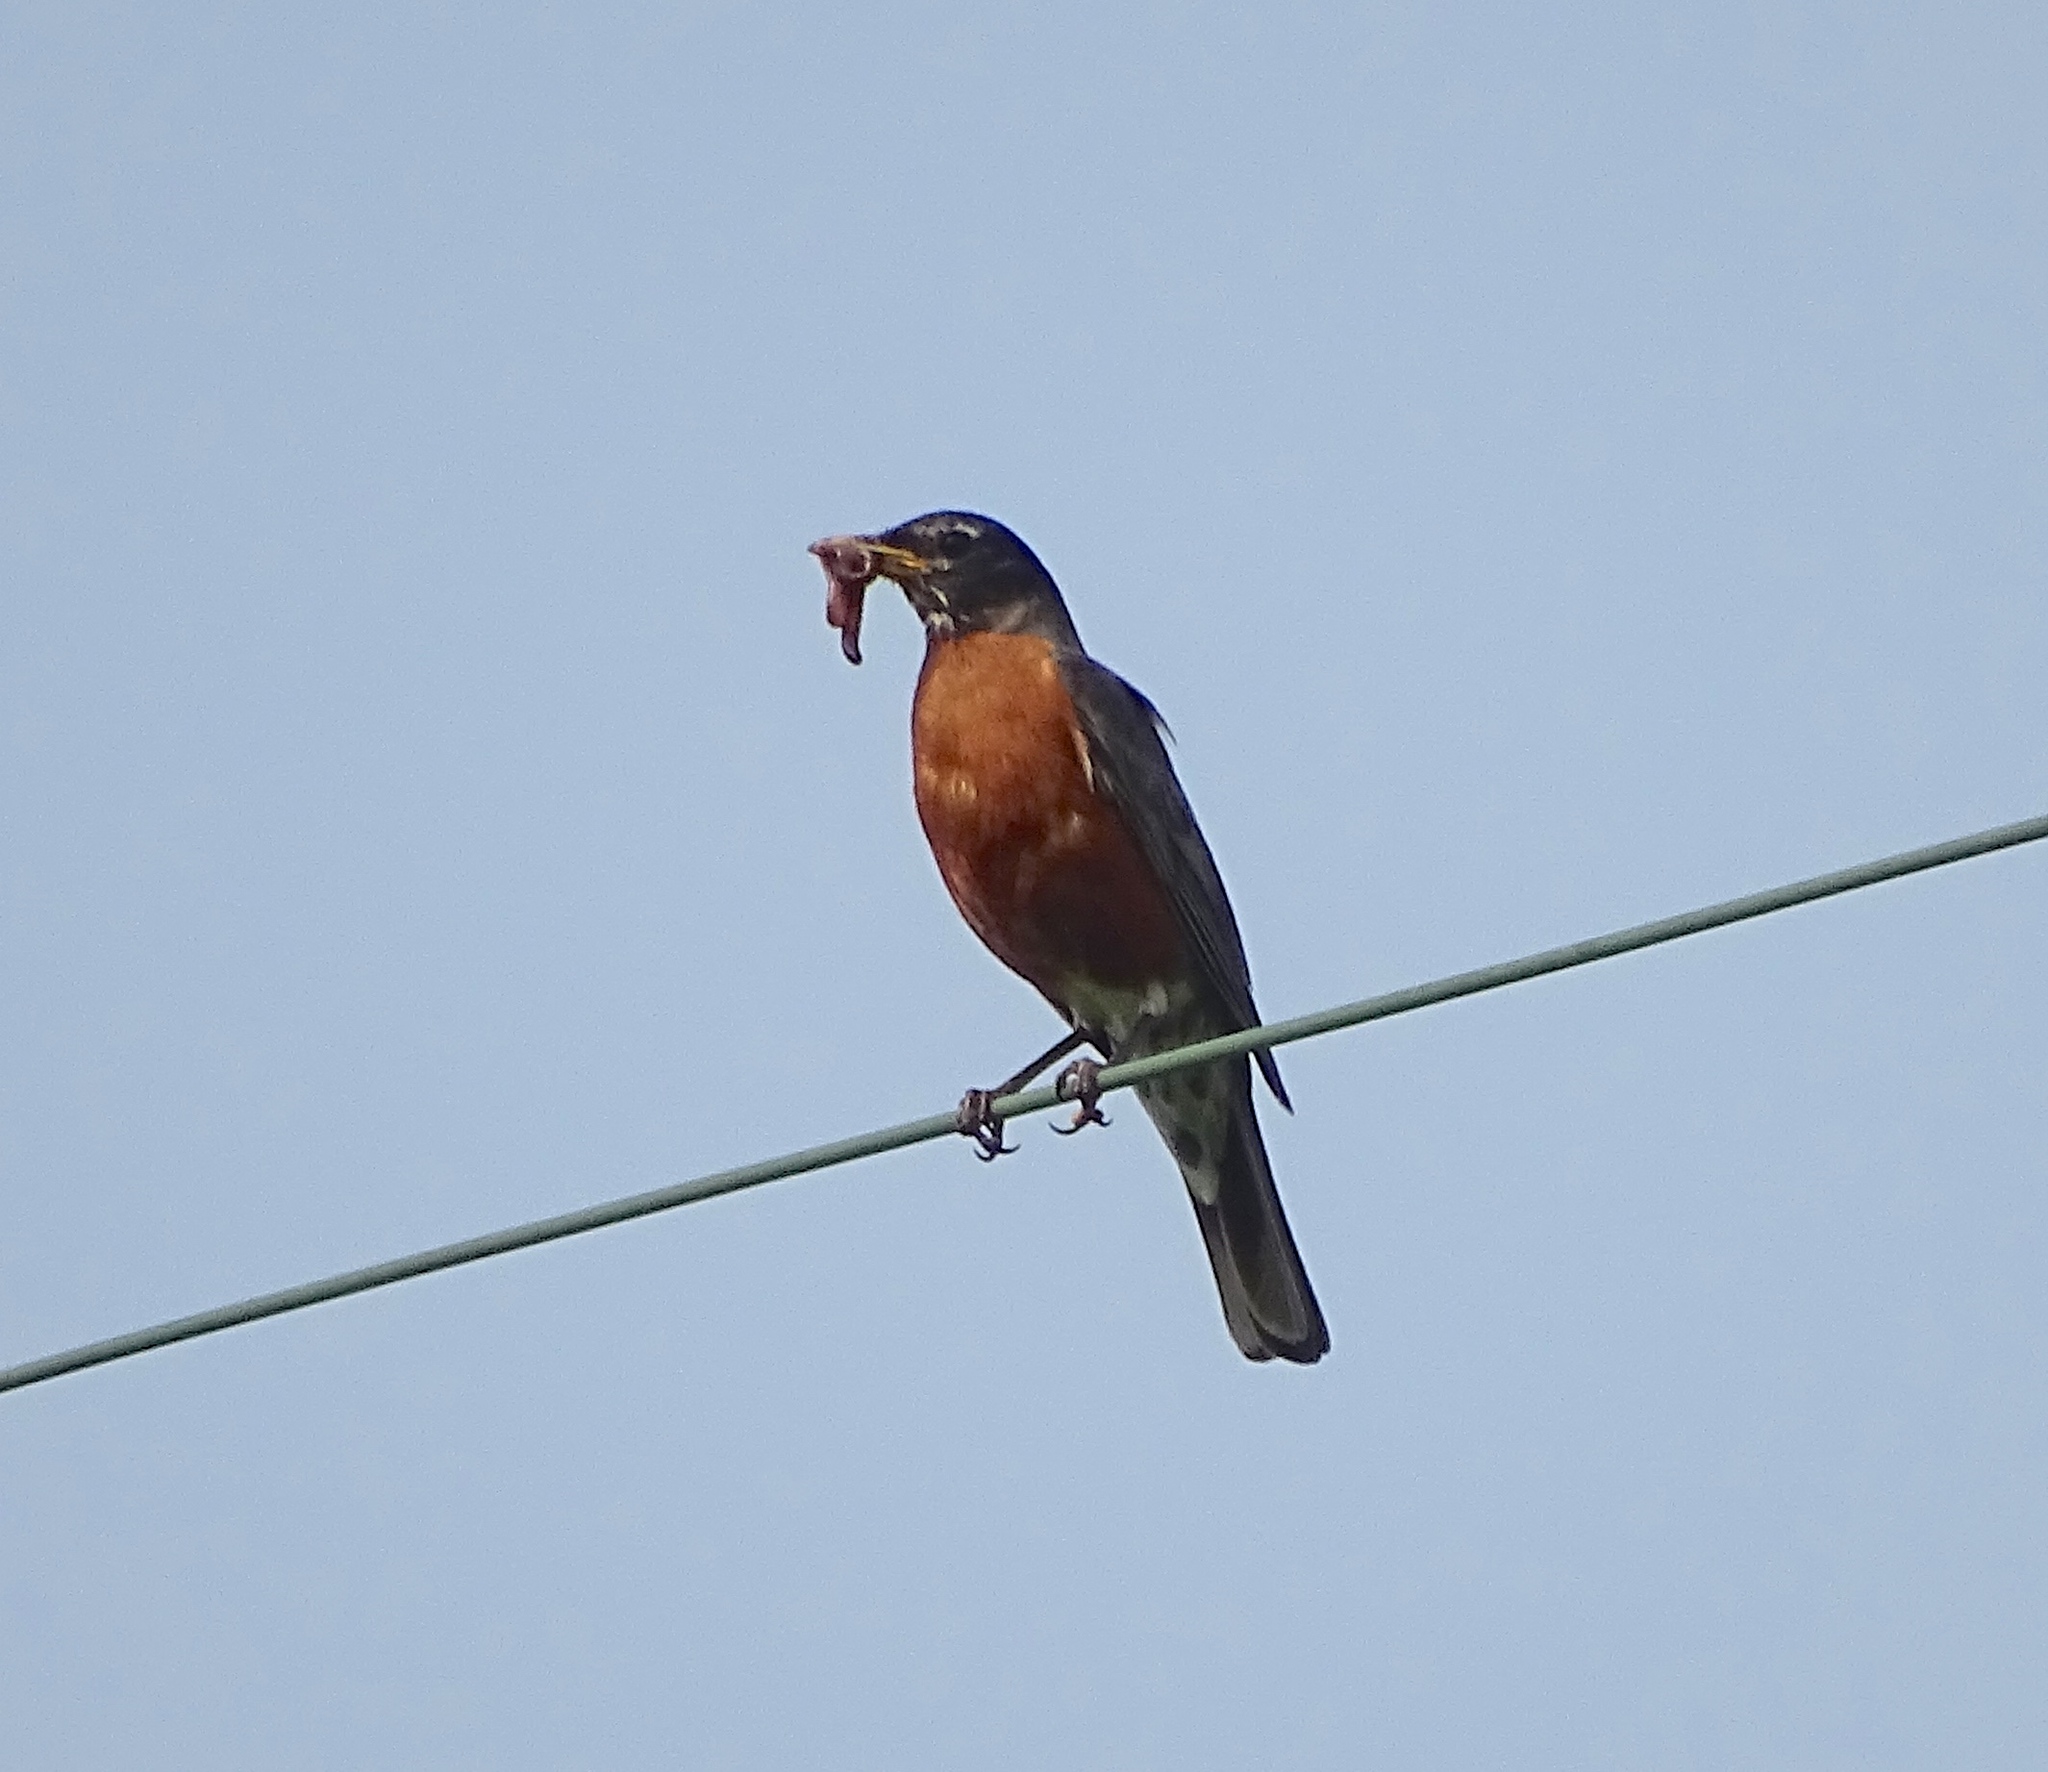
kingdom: Animalia
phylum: Chordata
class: Aves
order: Passeriformes
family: Turdidae
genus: Turdus
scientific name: Turdus migratorius
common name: American robin
